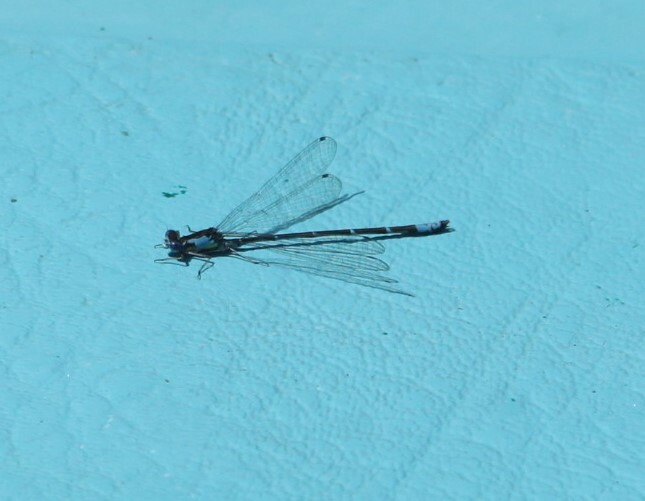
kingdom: Animalia
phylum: Arthropoda
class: Insecta
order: Odonata
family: Coenagrionidae
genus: Chromagrion
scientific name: Chromagrion conditum
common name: Aurora damsel
